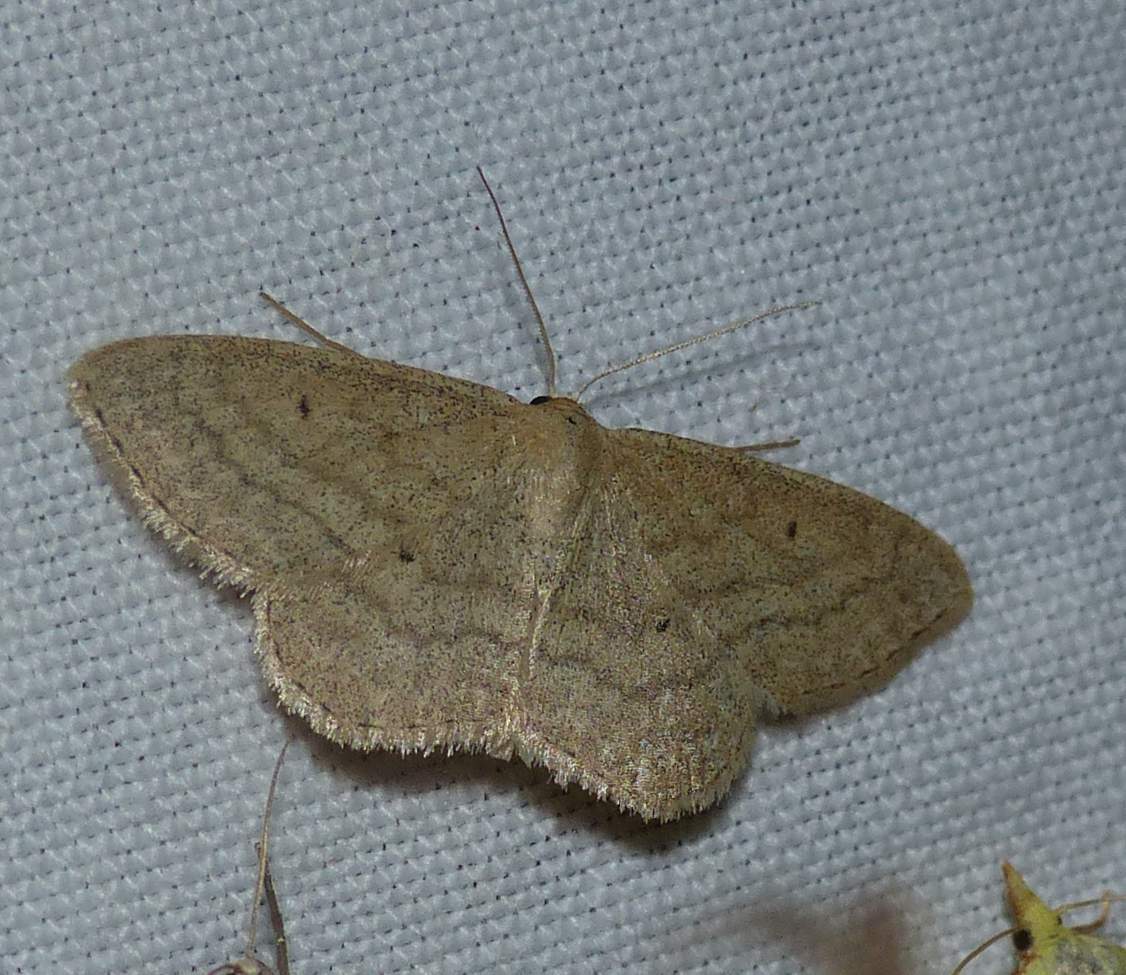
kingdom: Animalia
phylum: Arthropoda
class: Insecta
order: Lepidoptera
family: Geometridae
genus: Scopula
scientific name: Scopula inductata
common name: Soft-lined wave
